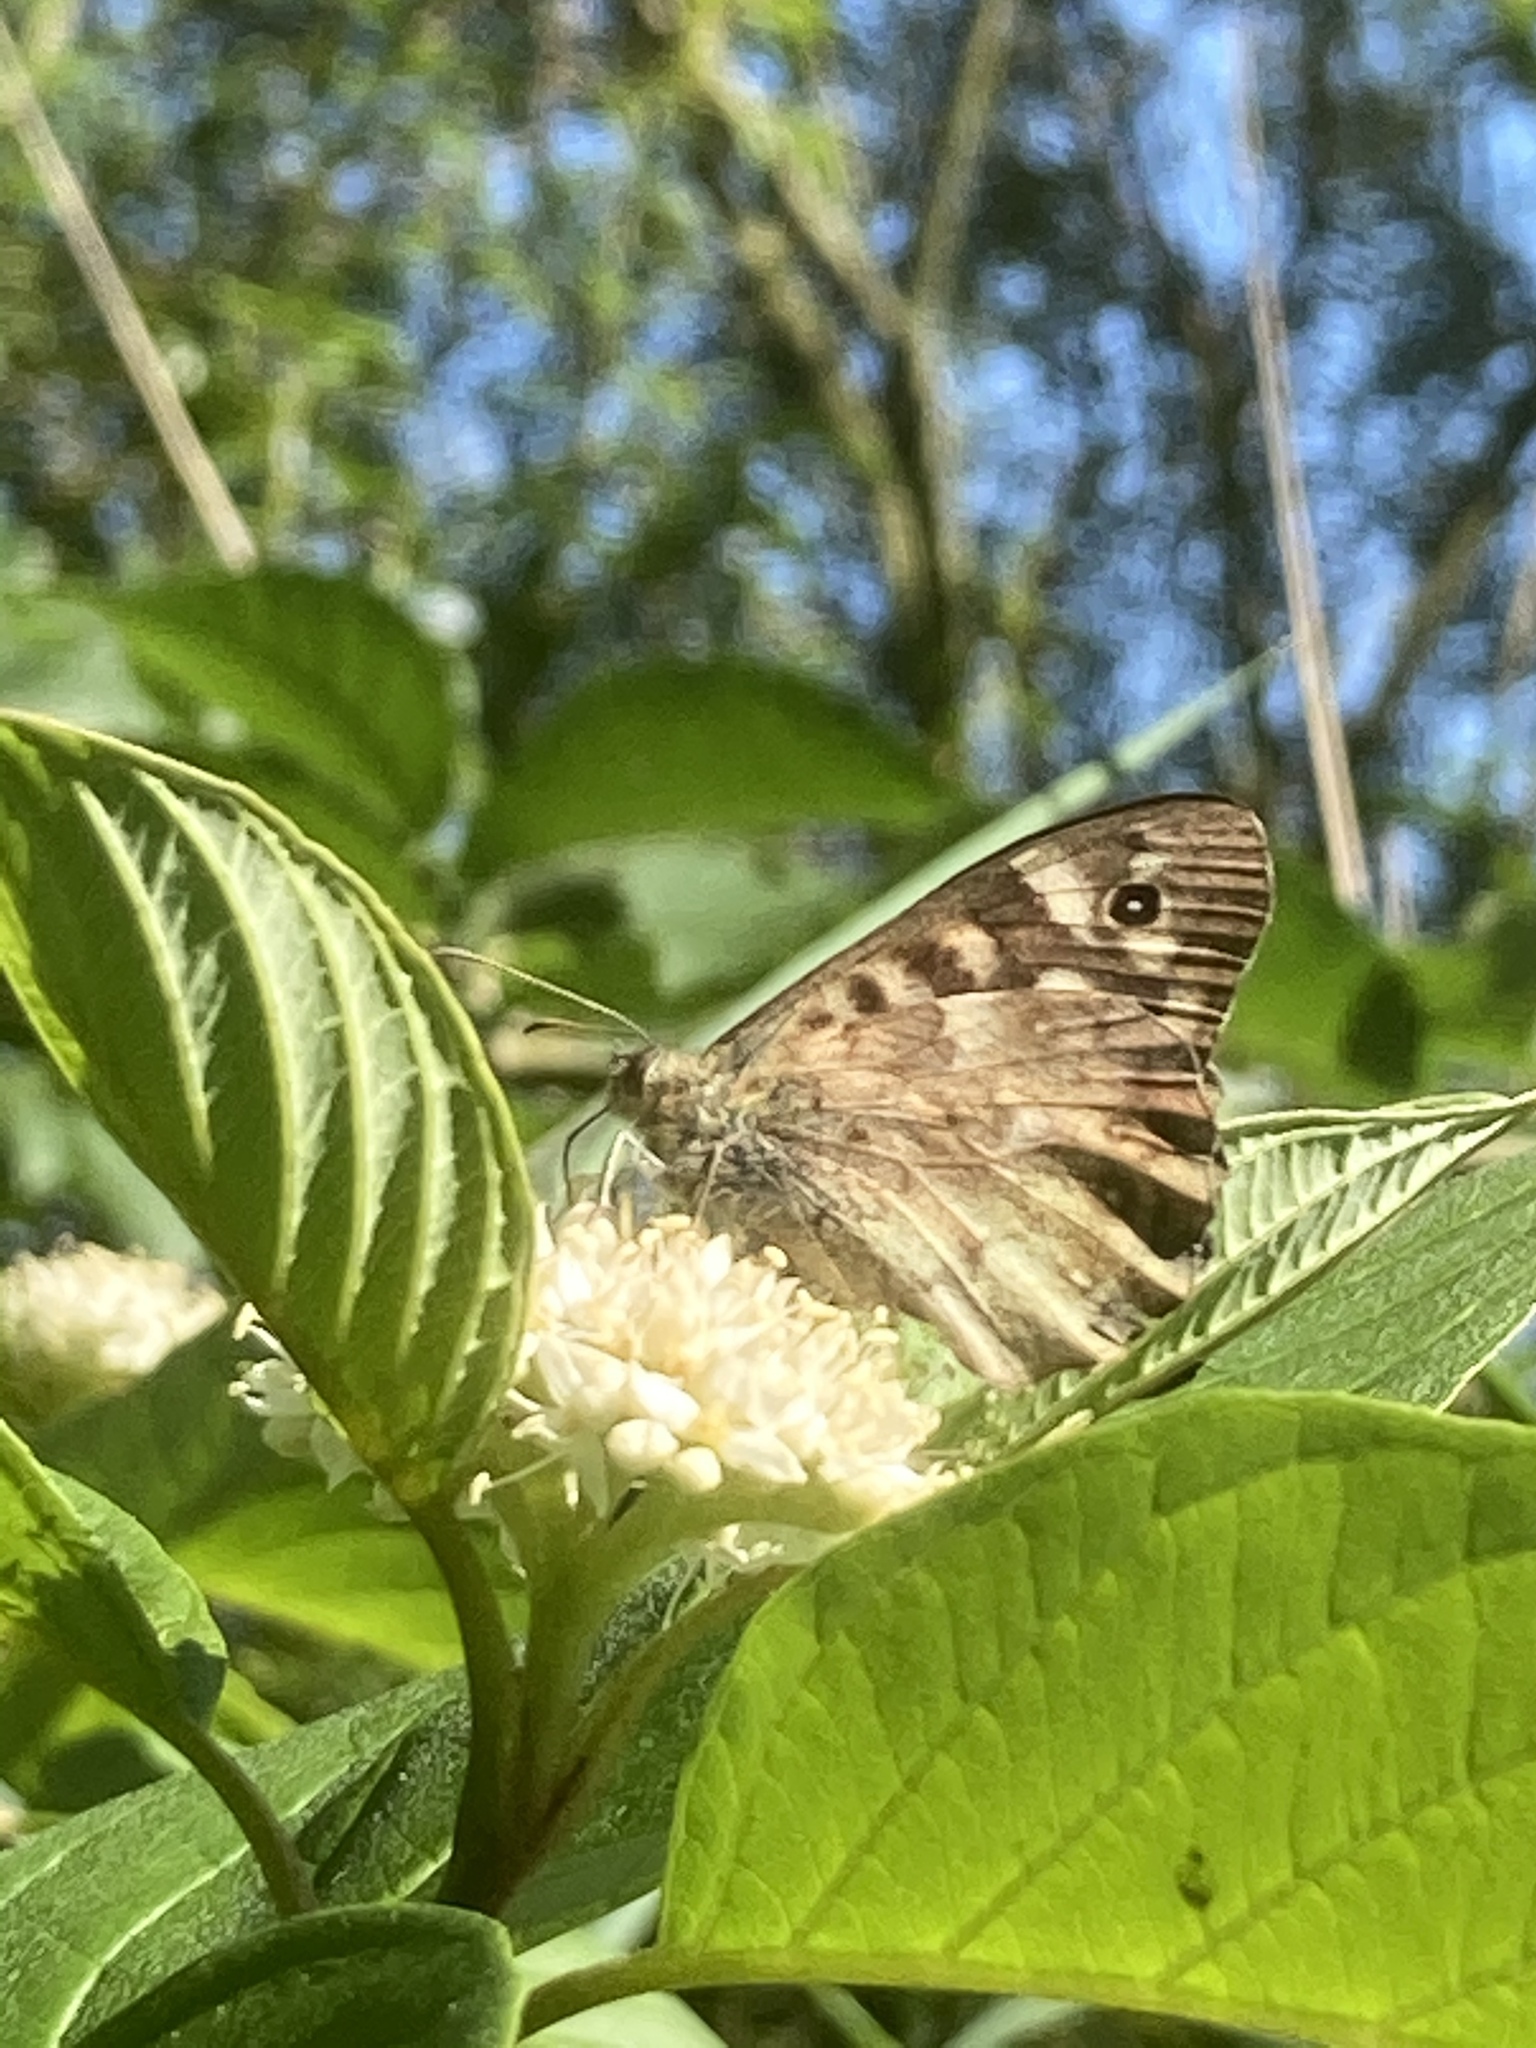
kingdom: Animalia
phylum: Arthropoda
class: Insecta
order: Lepidoptera
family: Nymphalidae
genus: Pararge
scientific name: Pararge aegeria
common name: Speckled wood
